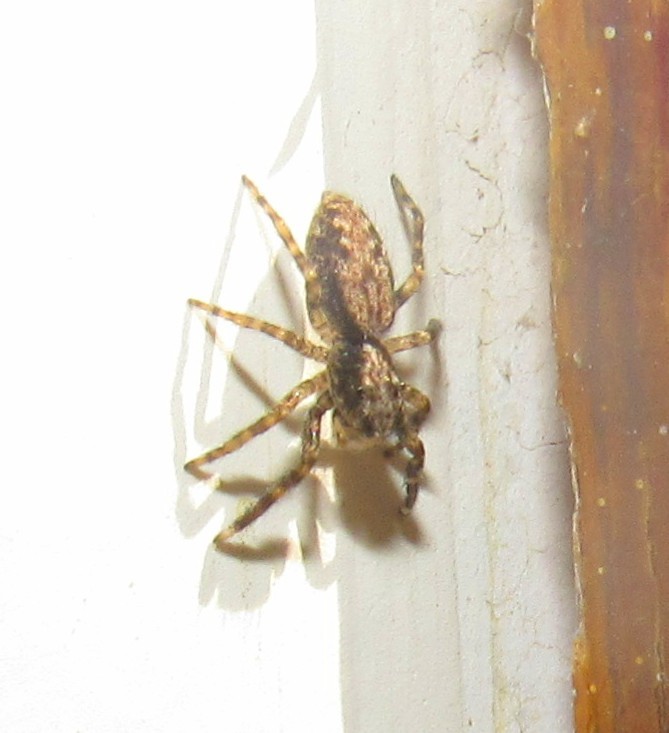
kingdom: Animalia
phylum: Arthropoda
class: Arachnida
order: Araneae
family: Salticidae
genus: Titanattus
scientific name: Titanattus andinus
